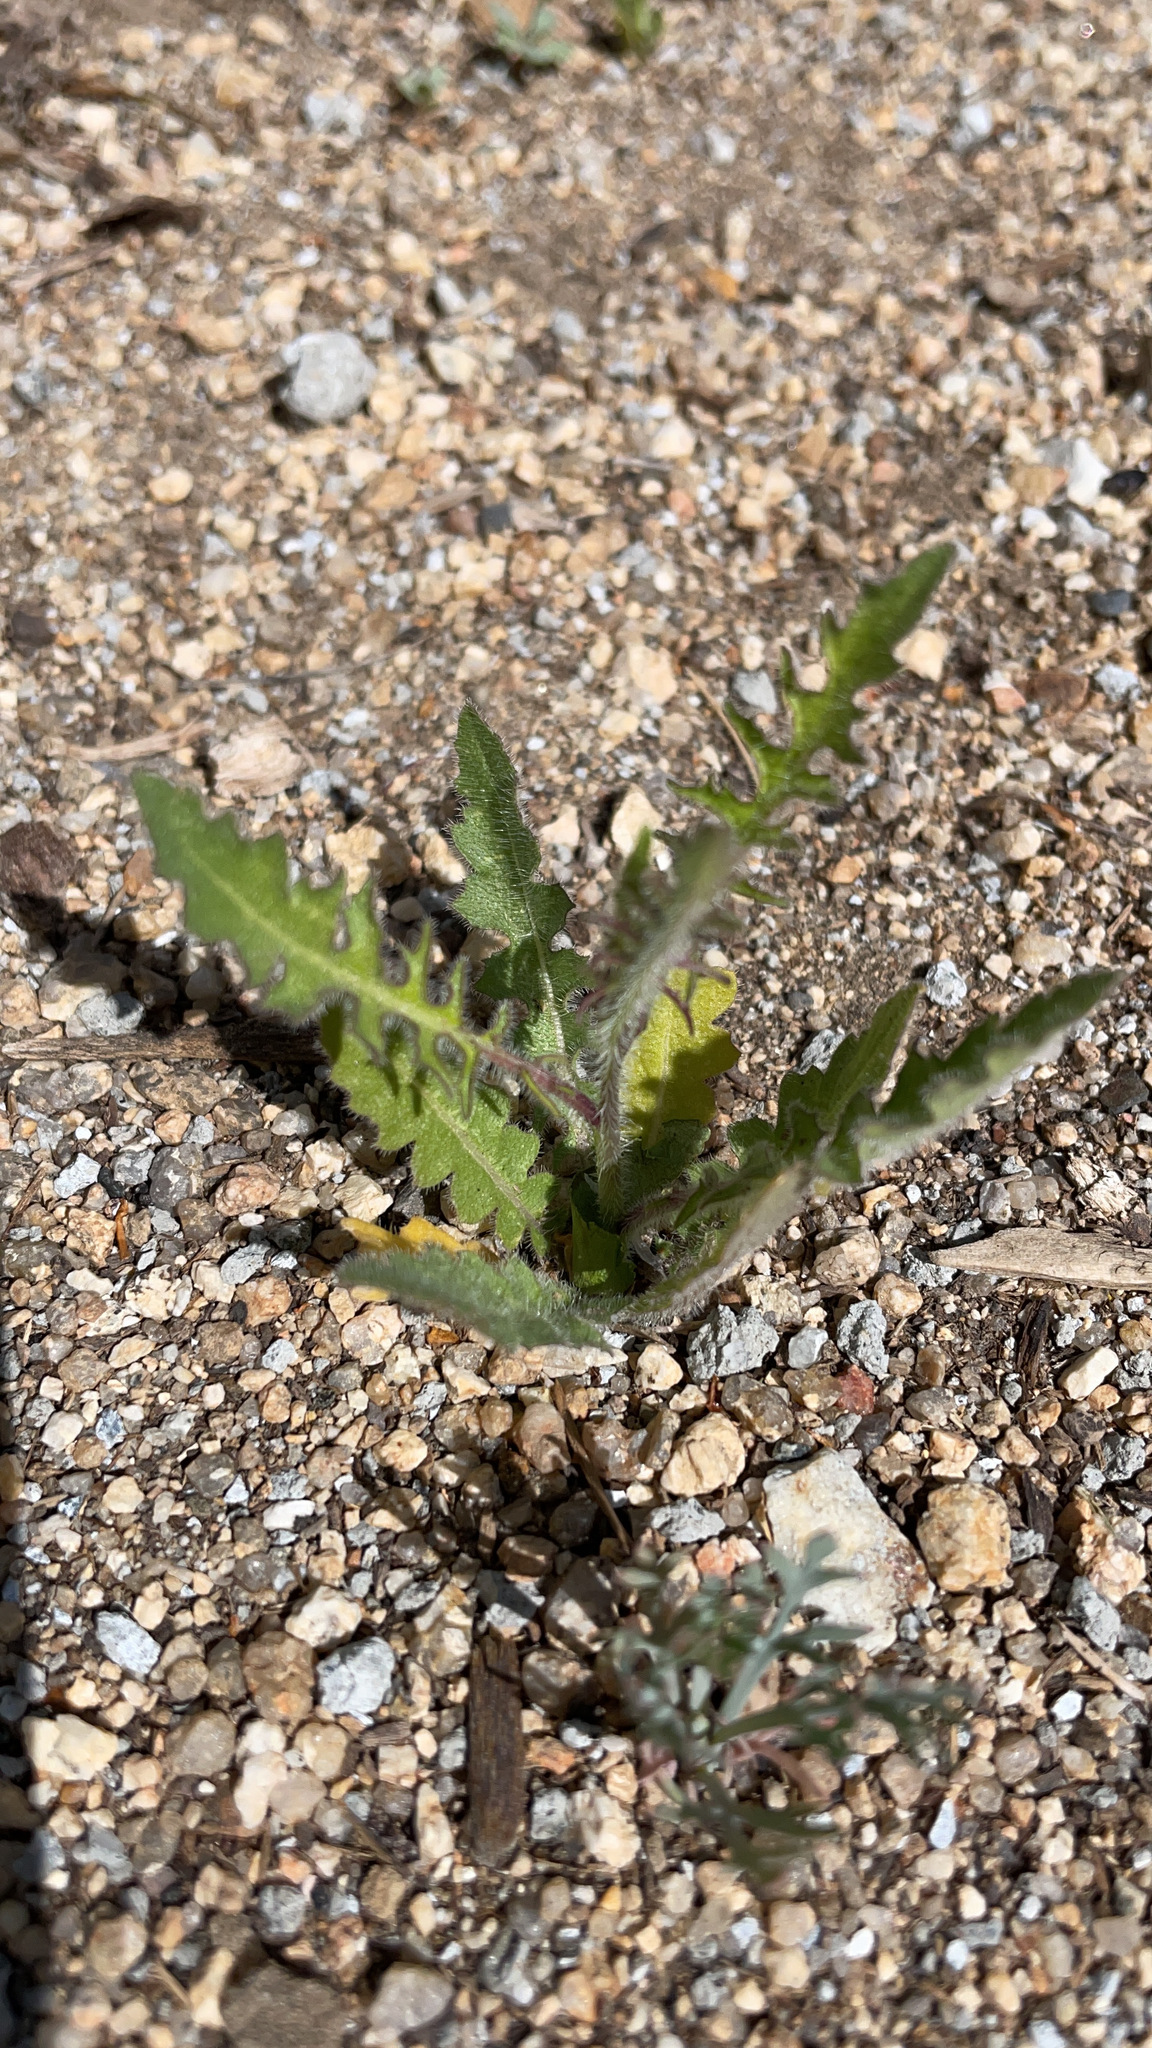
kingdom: Plantae
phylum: Tracheophyta
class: Magnoliopsida
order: Brassicales
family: Brassicaceae
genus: Sisymbrium
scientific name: Sisymbrium altissimum
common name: Tall rocket
